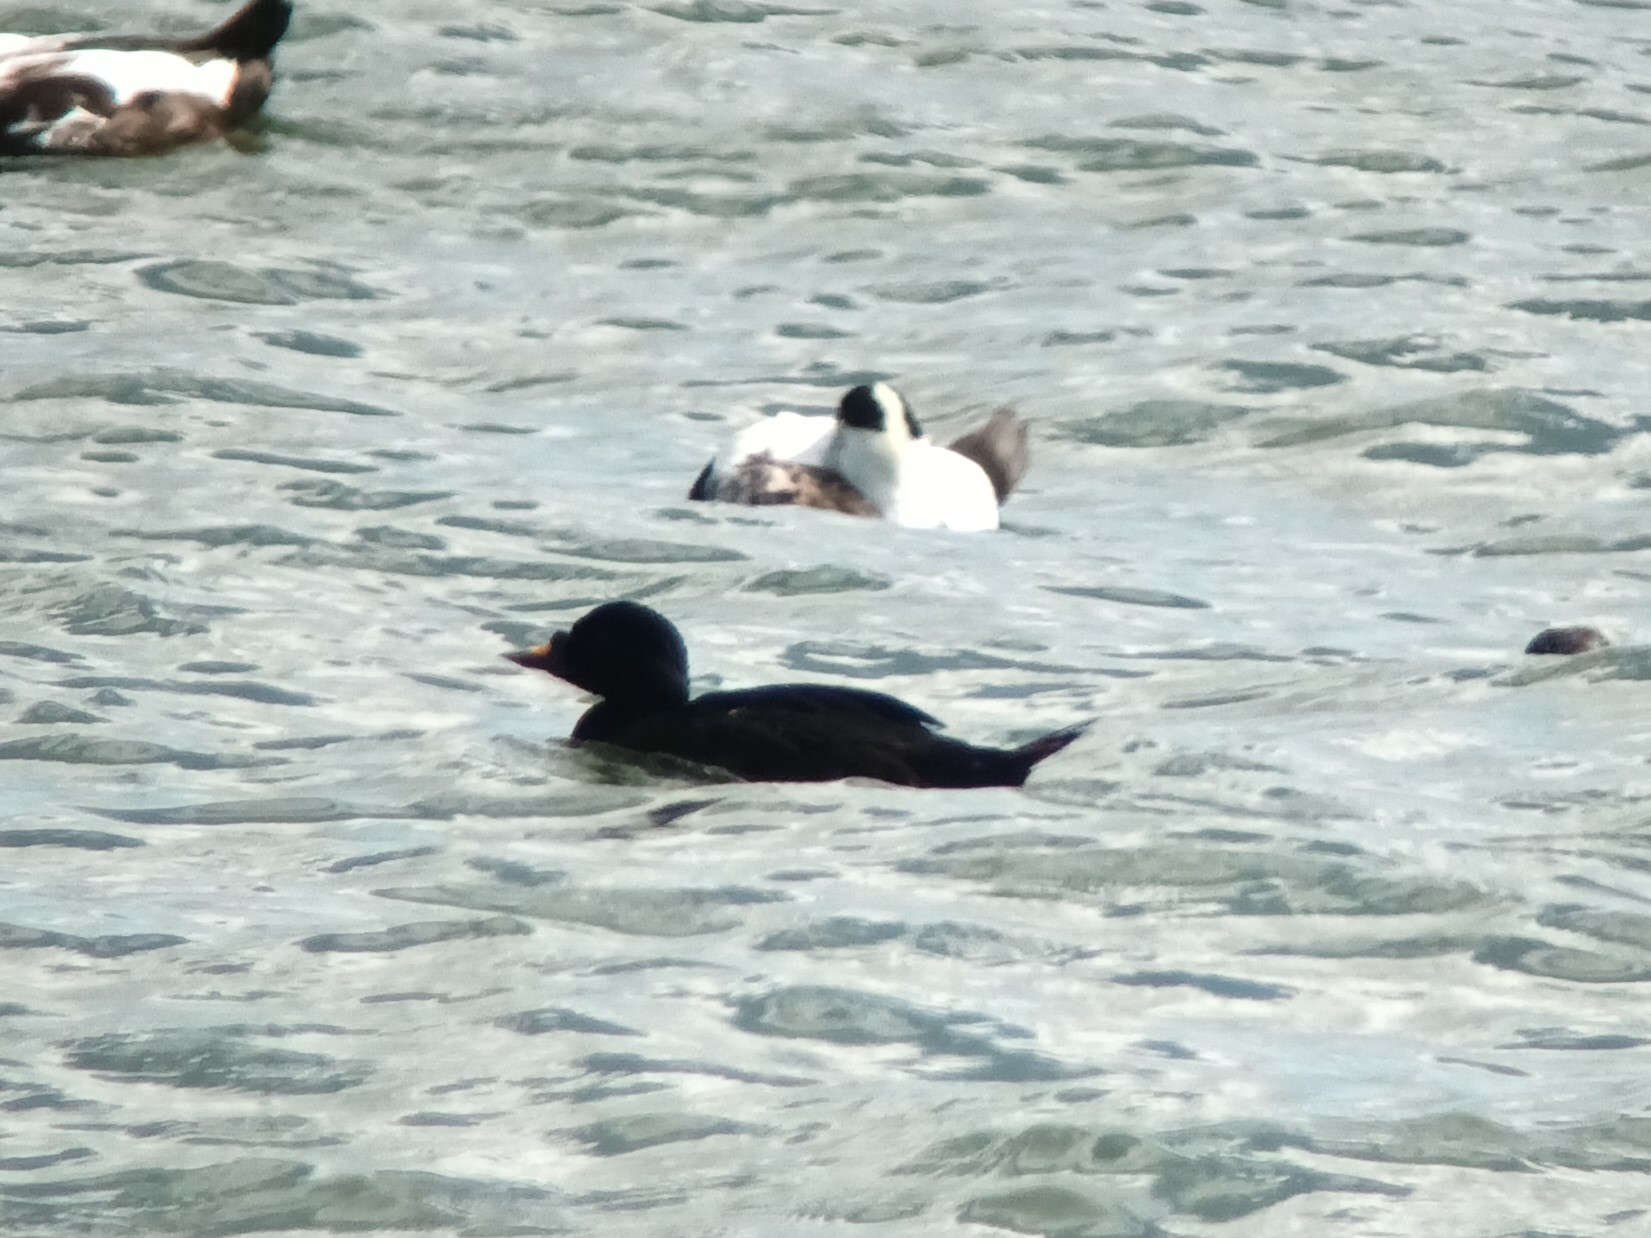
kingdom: Animalia
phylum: Chordata
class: Aves
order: Anseriformes
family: Anatidae
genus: Melanitta
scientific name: Melanitta nigra
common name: Common scoter
